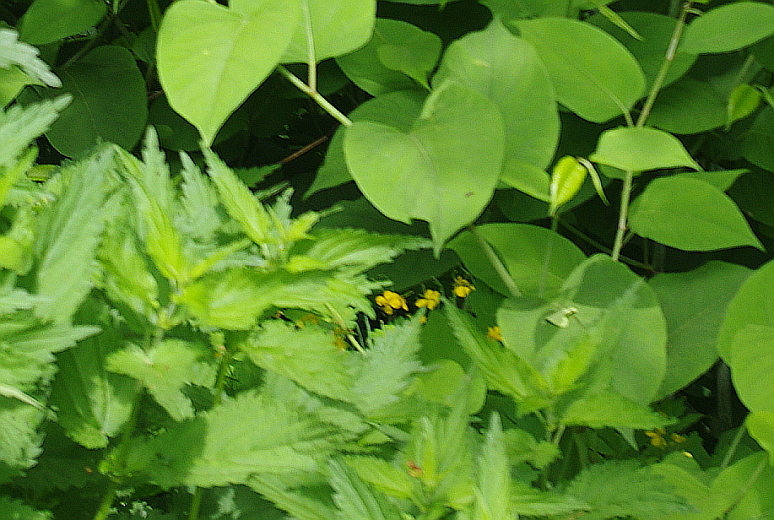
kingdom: Plantae
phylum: Tracheophyta
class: Magnoliopsida
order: Ranunculales
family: Papaveraceae
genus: Chelidonium
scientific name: Chelidonium majus
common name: Greater celandine
